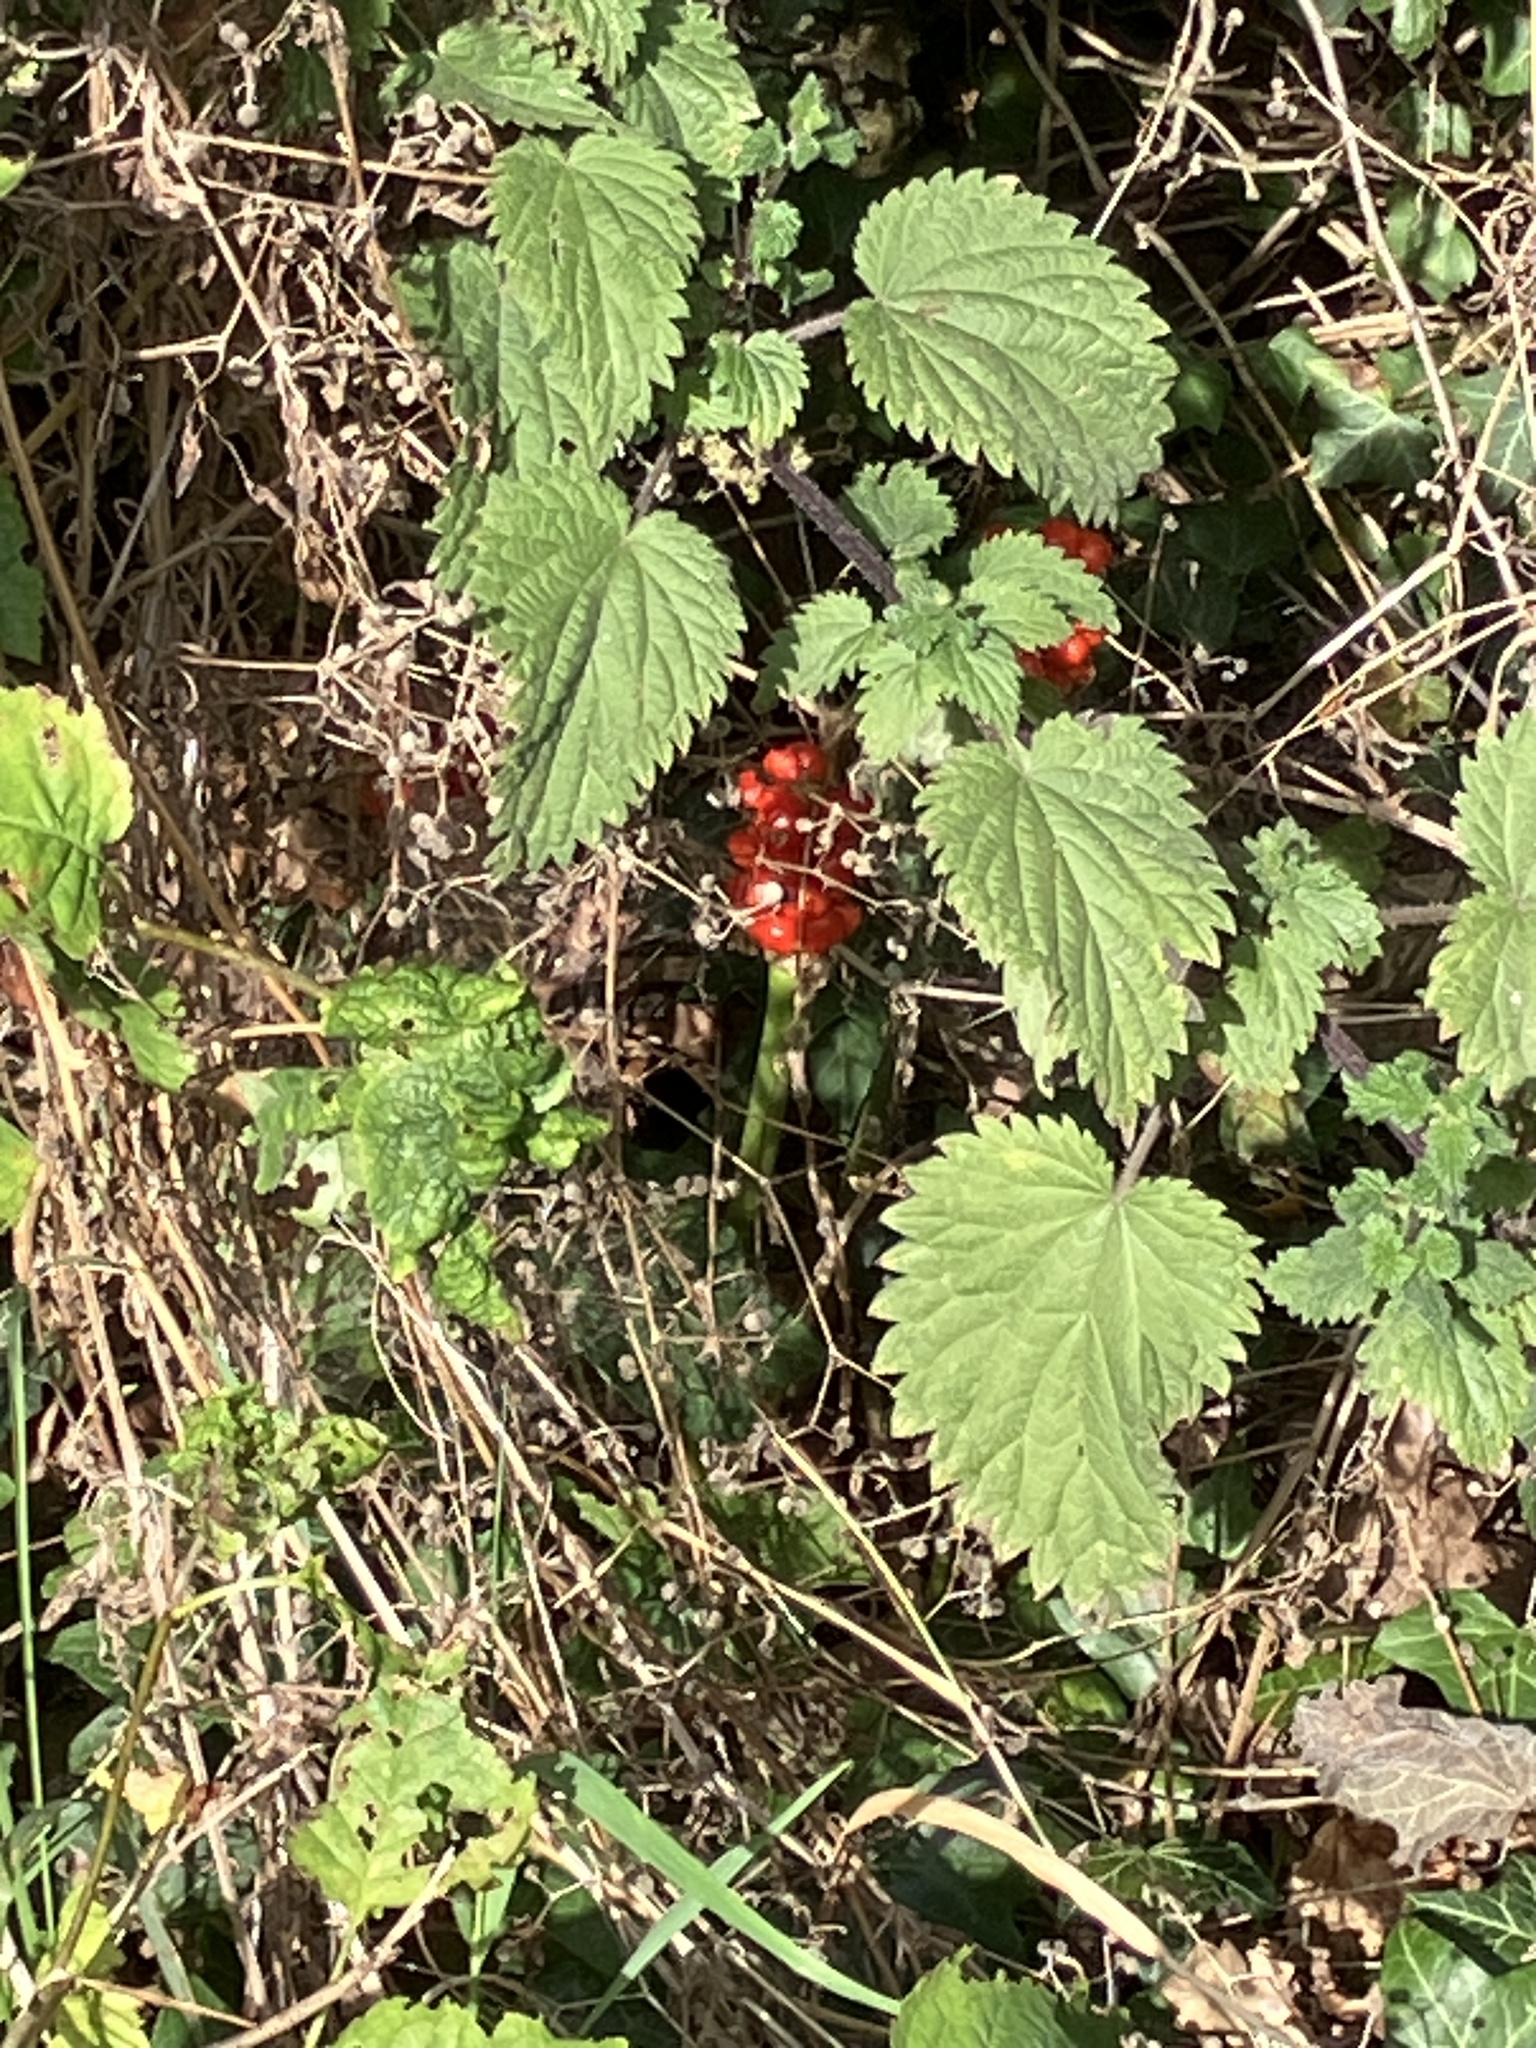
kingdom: Plantae
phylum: Tracheophyta
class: Liliopsida
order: Alismatales
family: Araceae
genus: Arum
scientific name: Arum maculatum
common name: Lords-and-ladies
